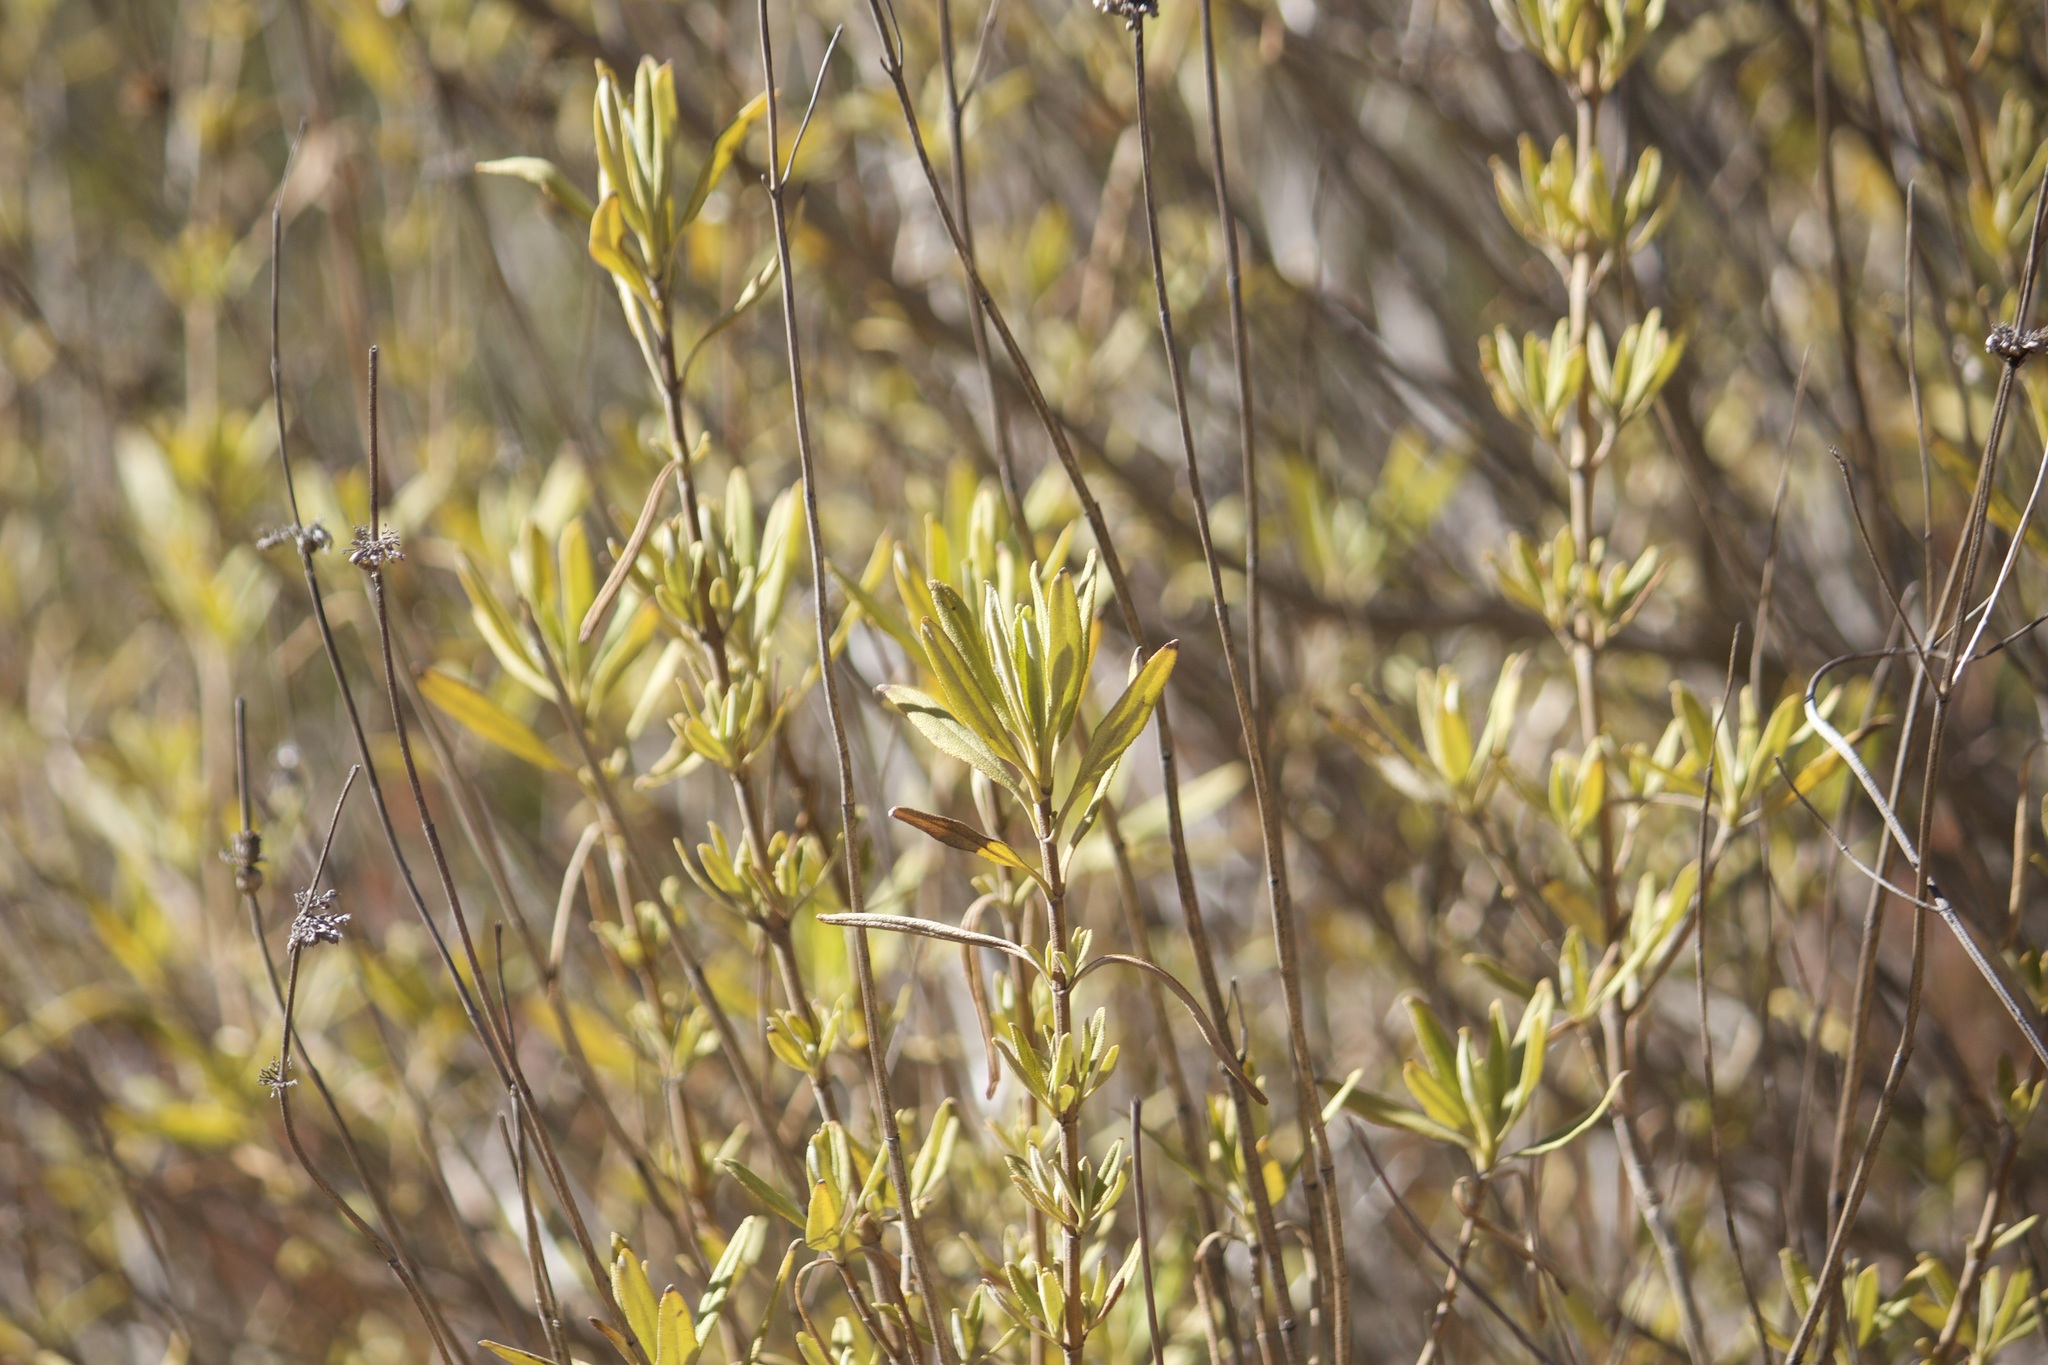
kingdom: Plantae
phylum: Tracheophyta
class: Magnoliopsida
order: Lamiales
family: Lamiaceae
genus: Salvia
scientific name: Salvia mellifera
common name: Black sage
